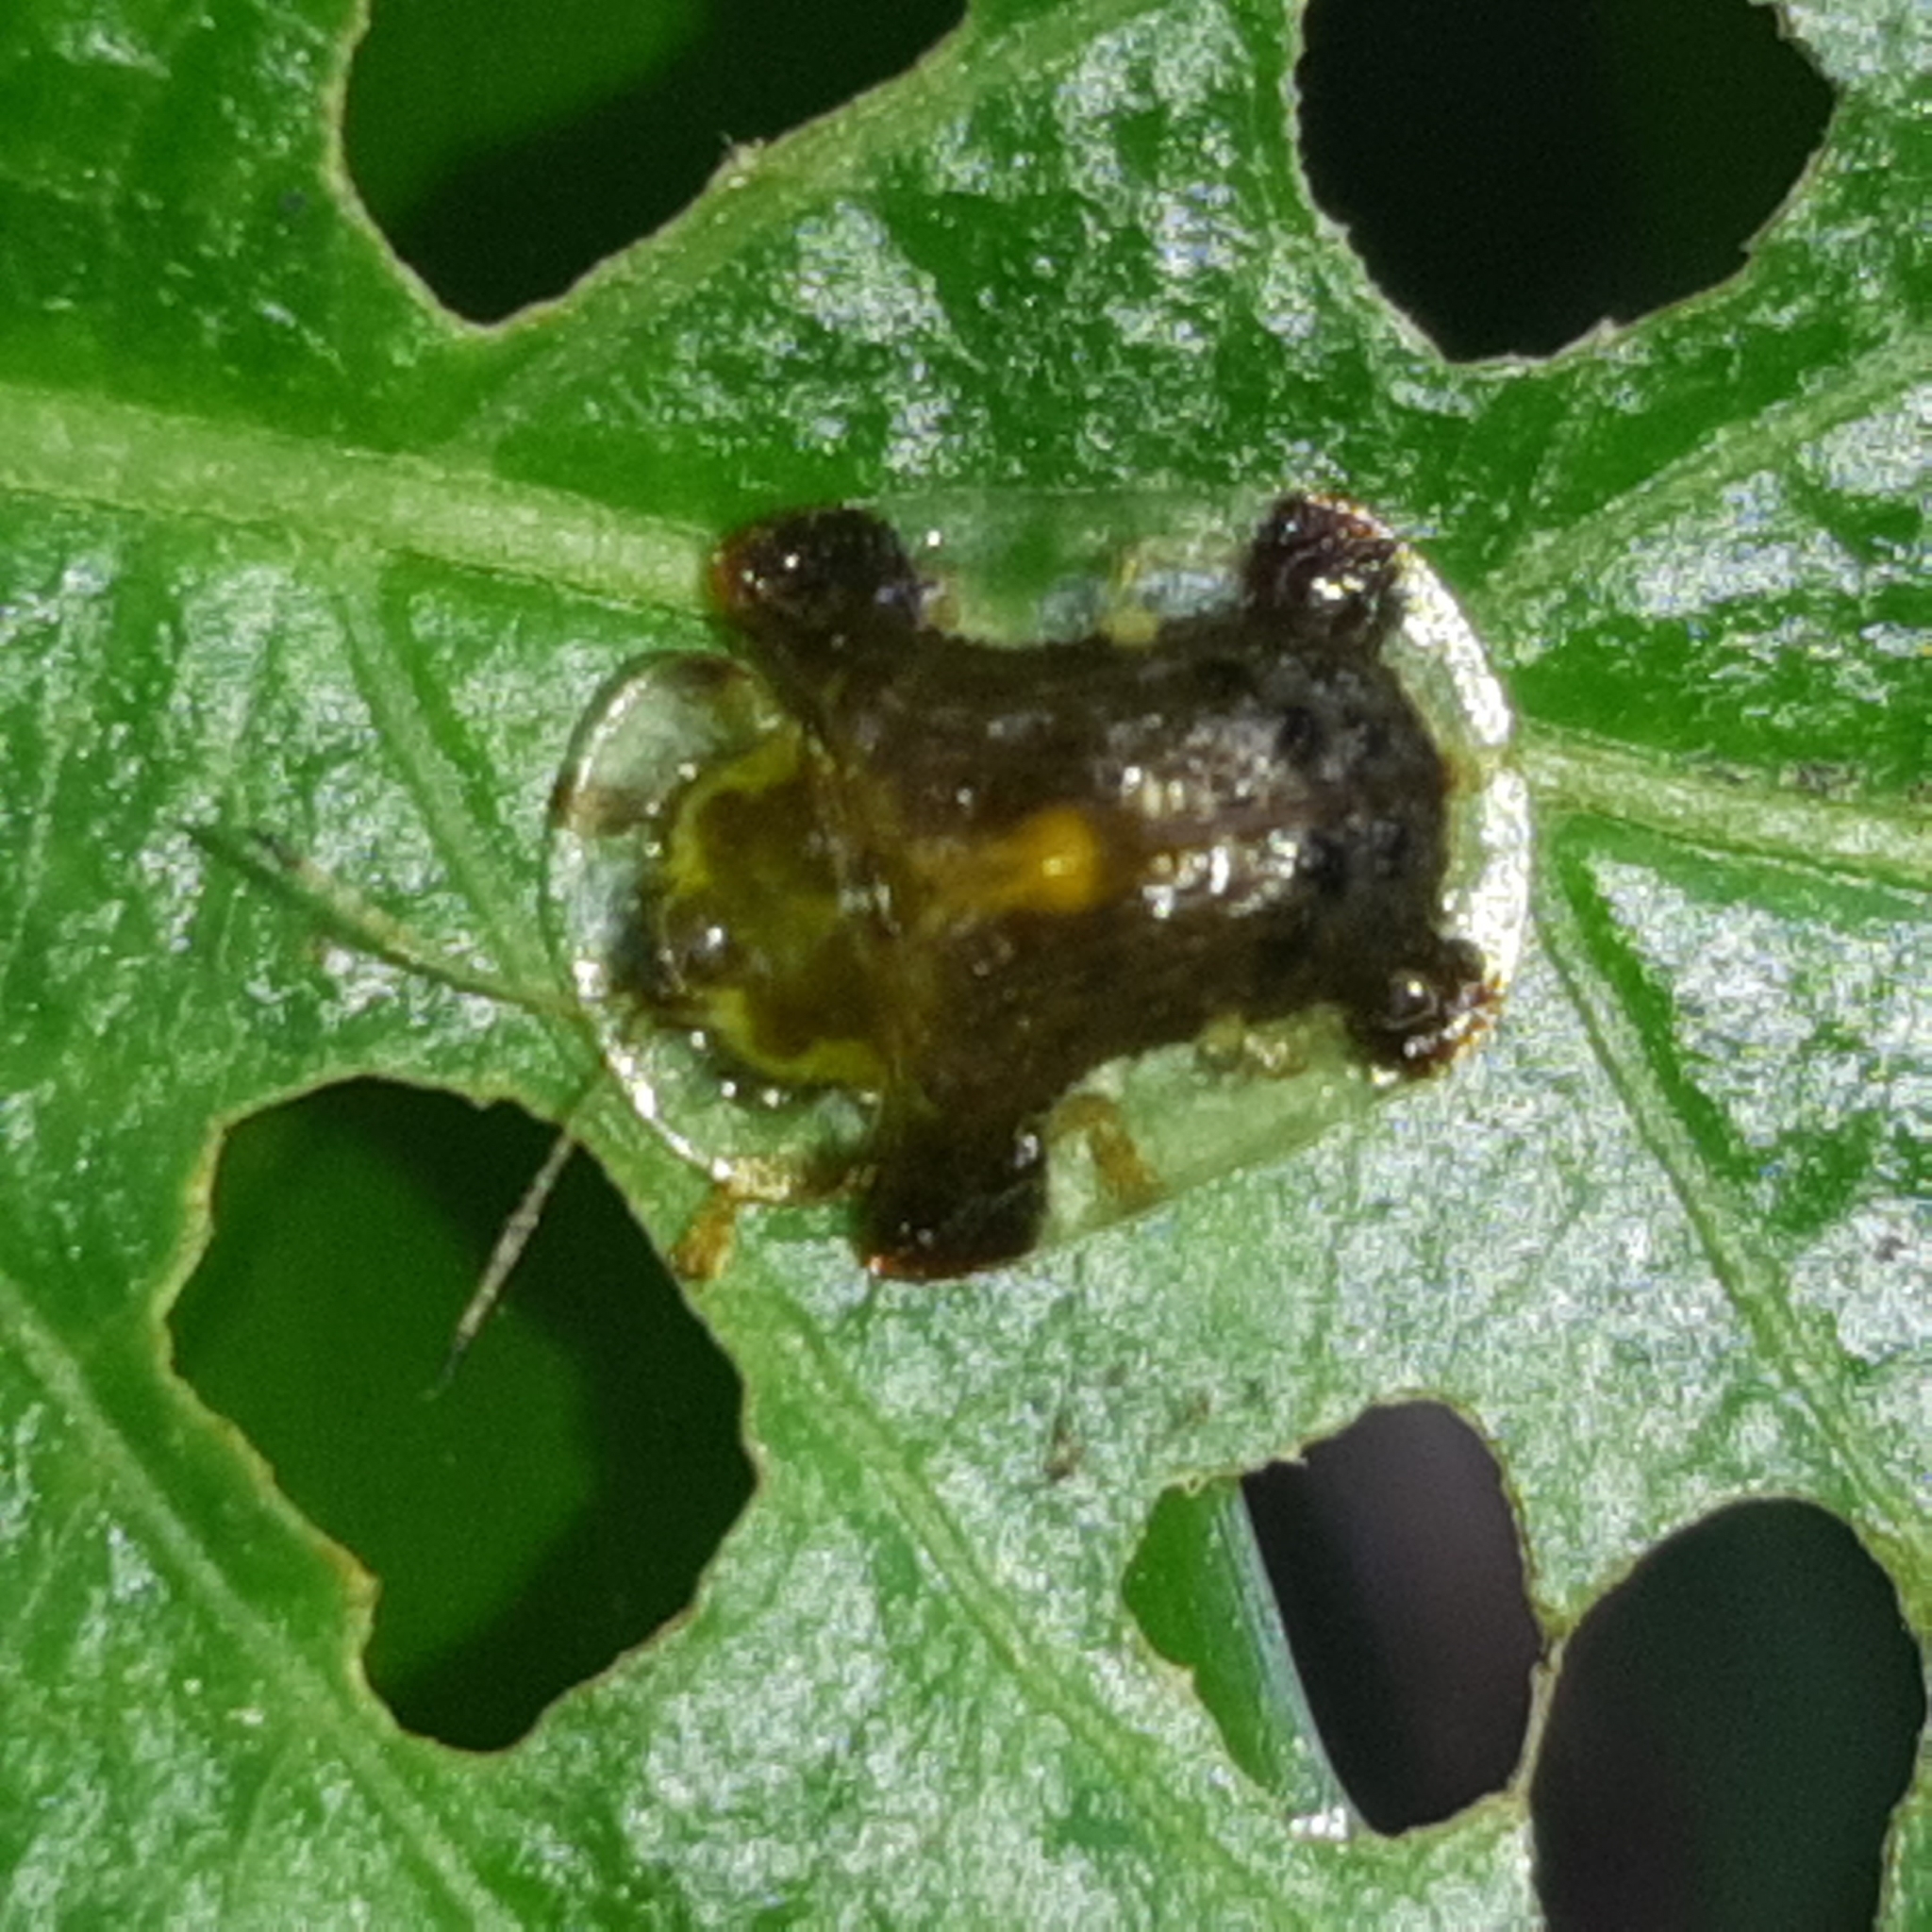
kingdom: Animalia
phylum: Arthropoda
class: Insecta
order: Coleoptera
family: Chrysomelidae
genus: Helocassis
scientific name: Helocassis testudinaria
